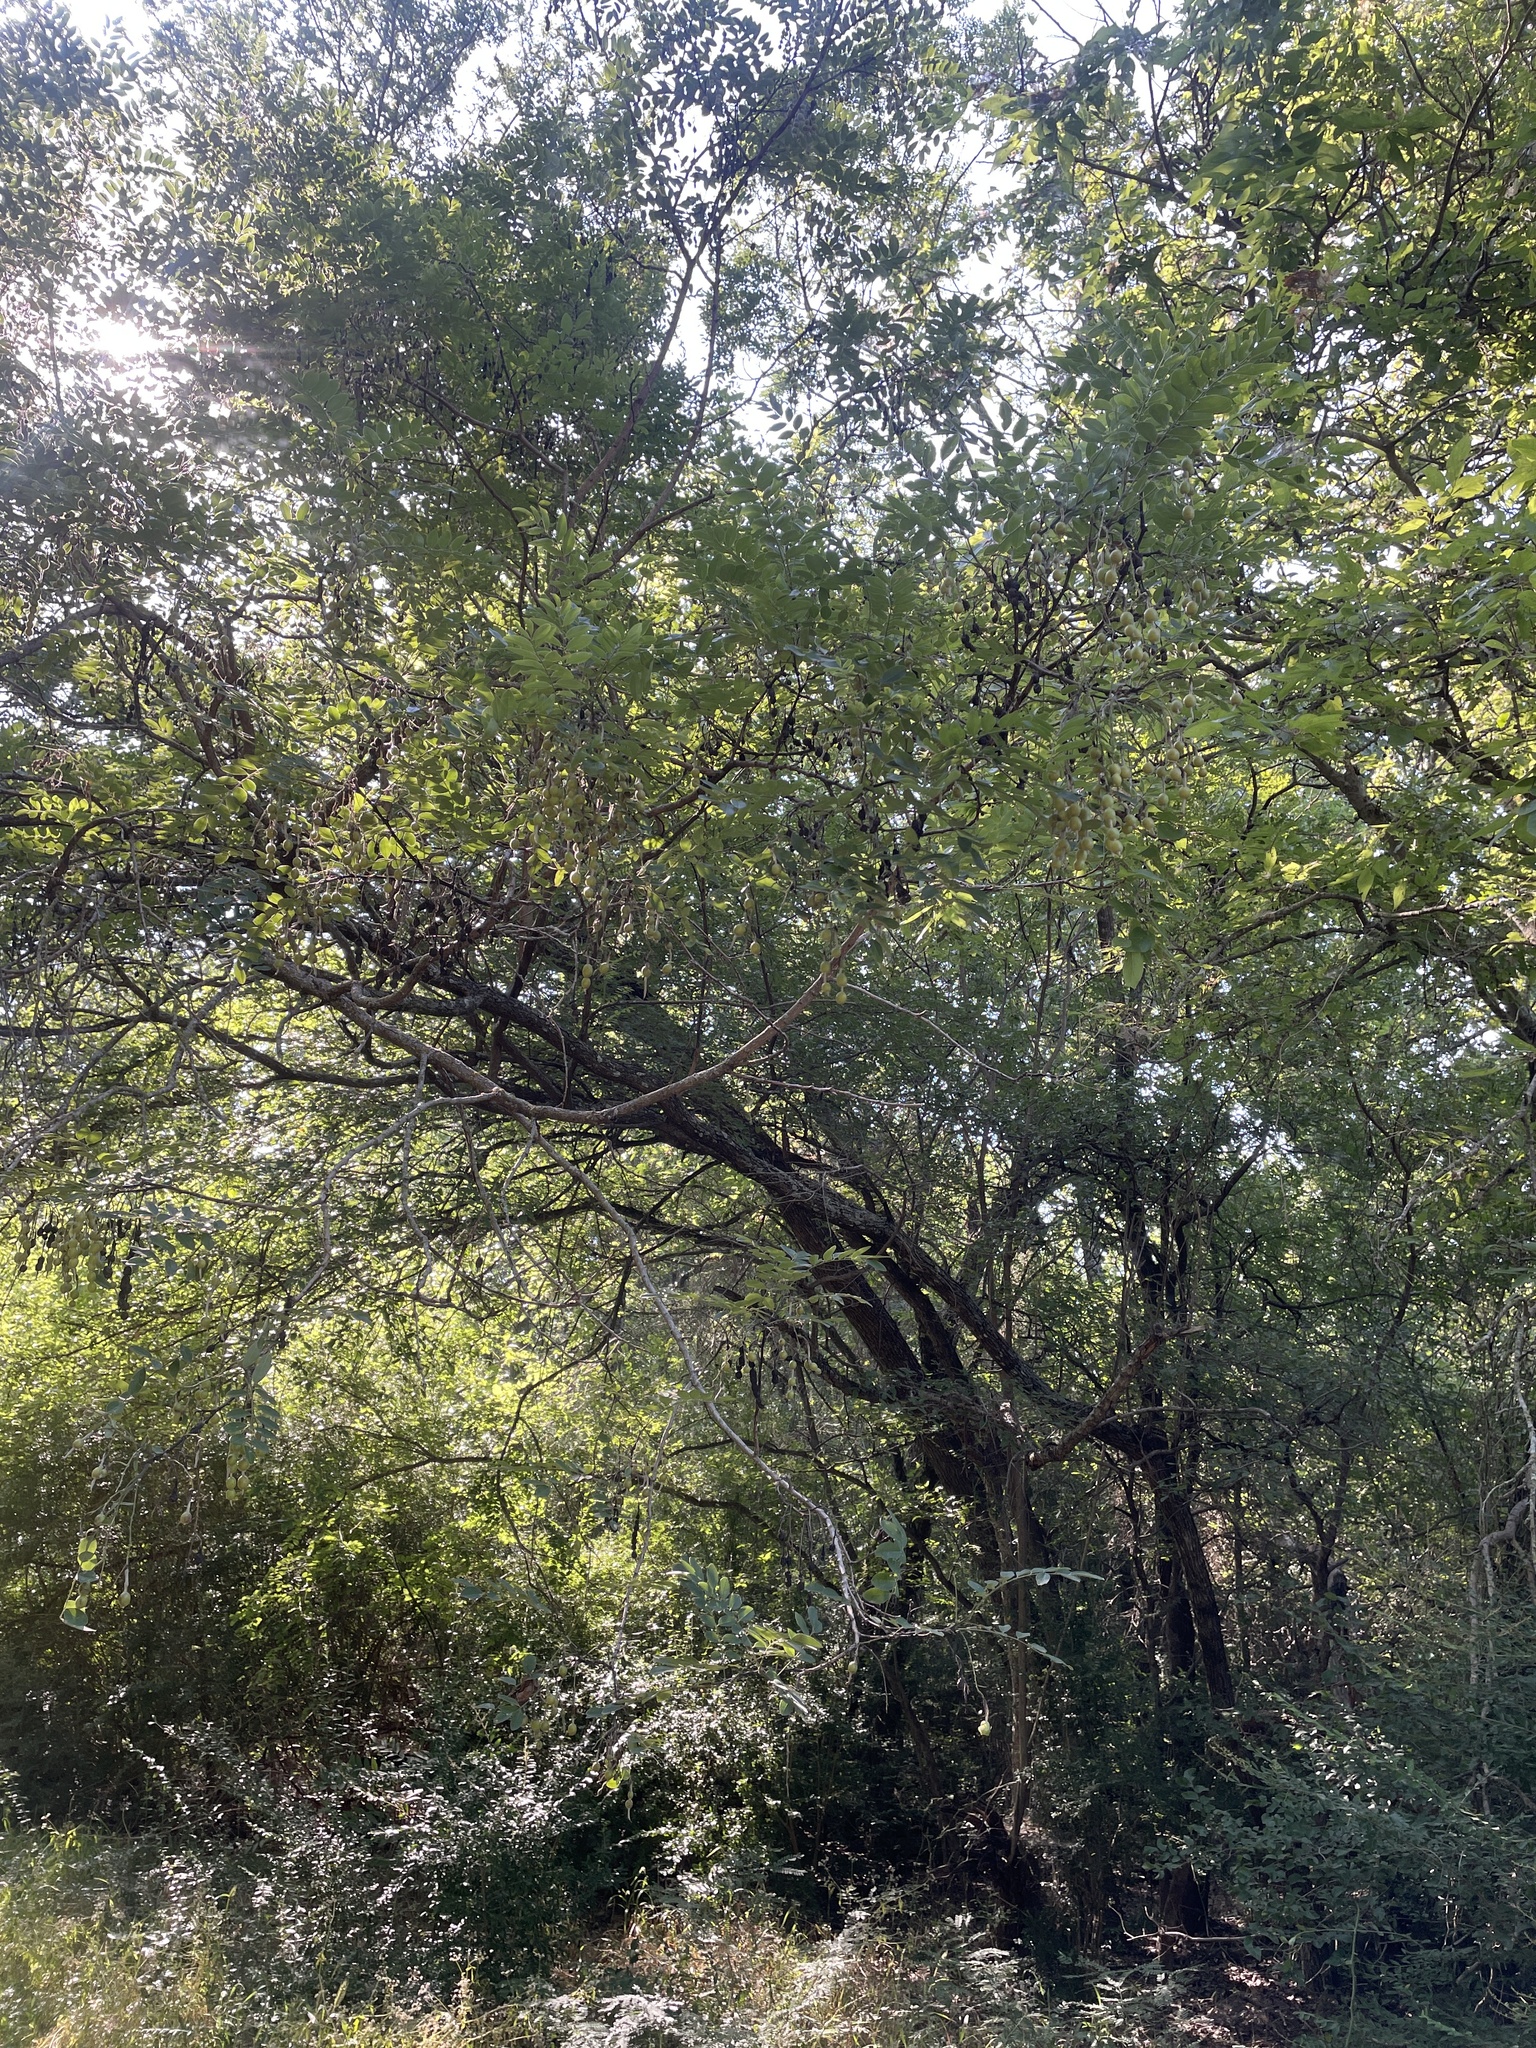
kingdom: Plantae
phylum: Tracheophyta
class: Magnoliopsida
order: Fabales
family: Fabaceae
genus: Styphnolobium
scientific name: Styphnolobium affine
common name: Texas sophora
